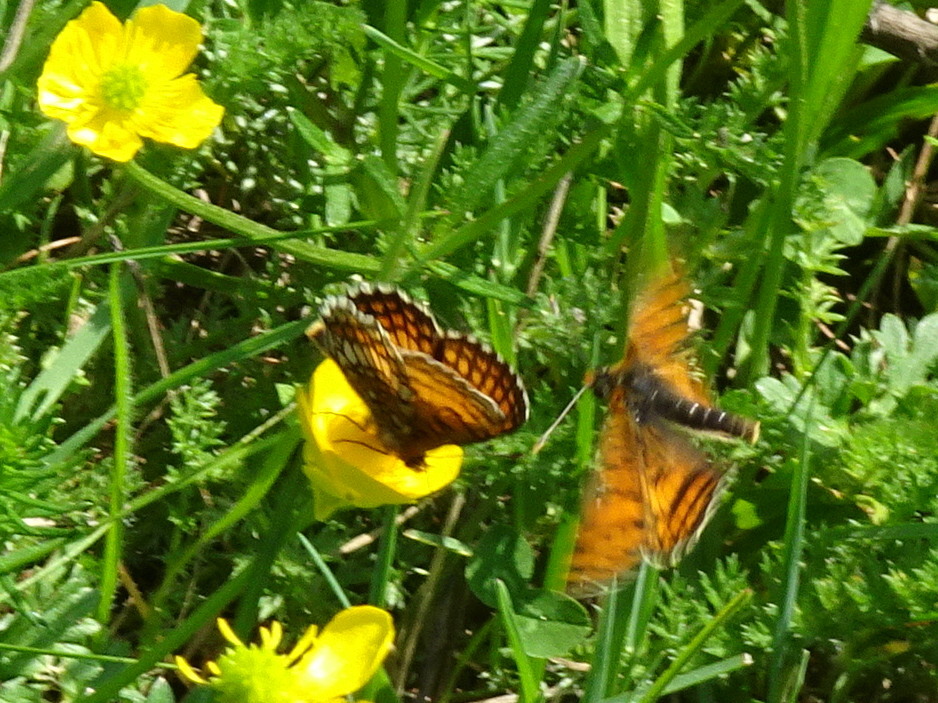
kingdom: Animalia
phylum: Arthropoda
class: Insecta
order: Lepidoptera
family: Nymphalidae
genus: Mellicta
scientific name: Mellicta parthenoides
